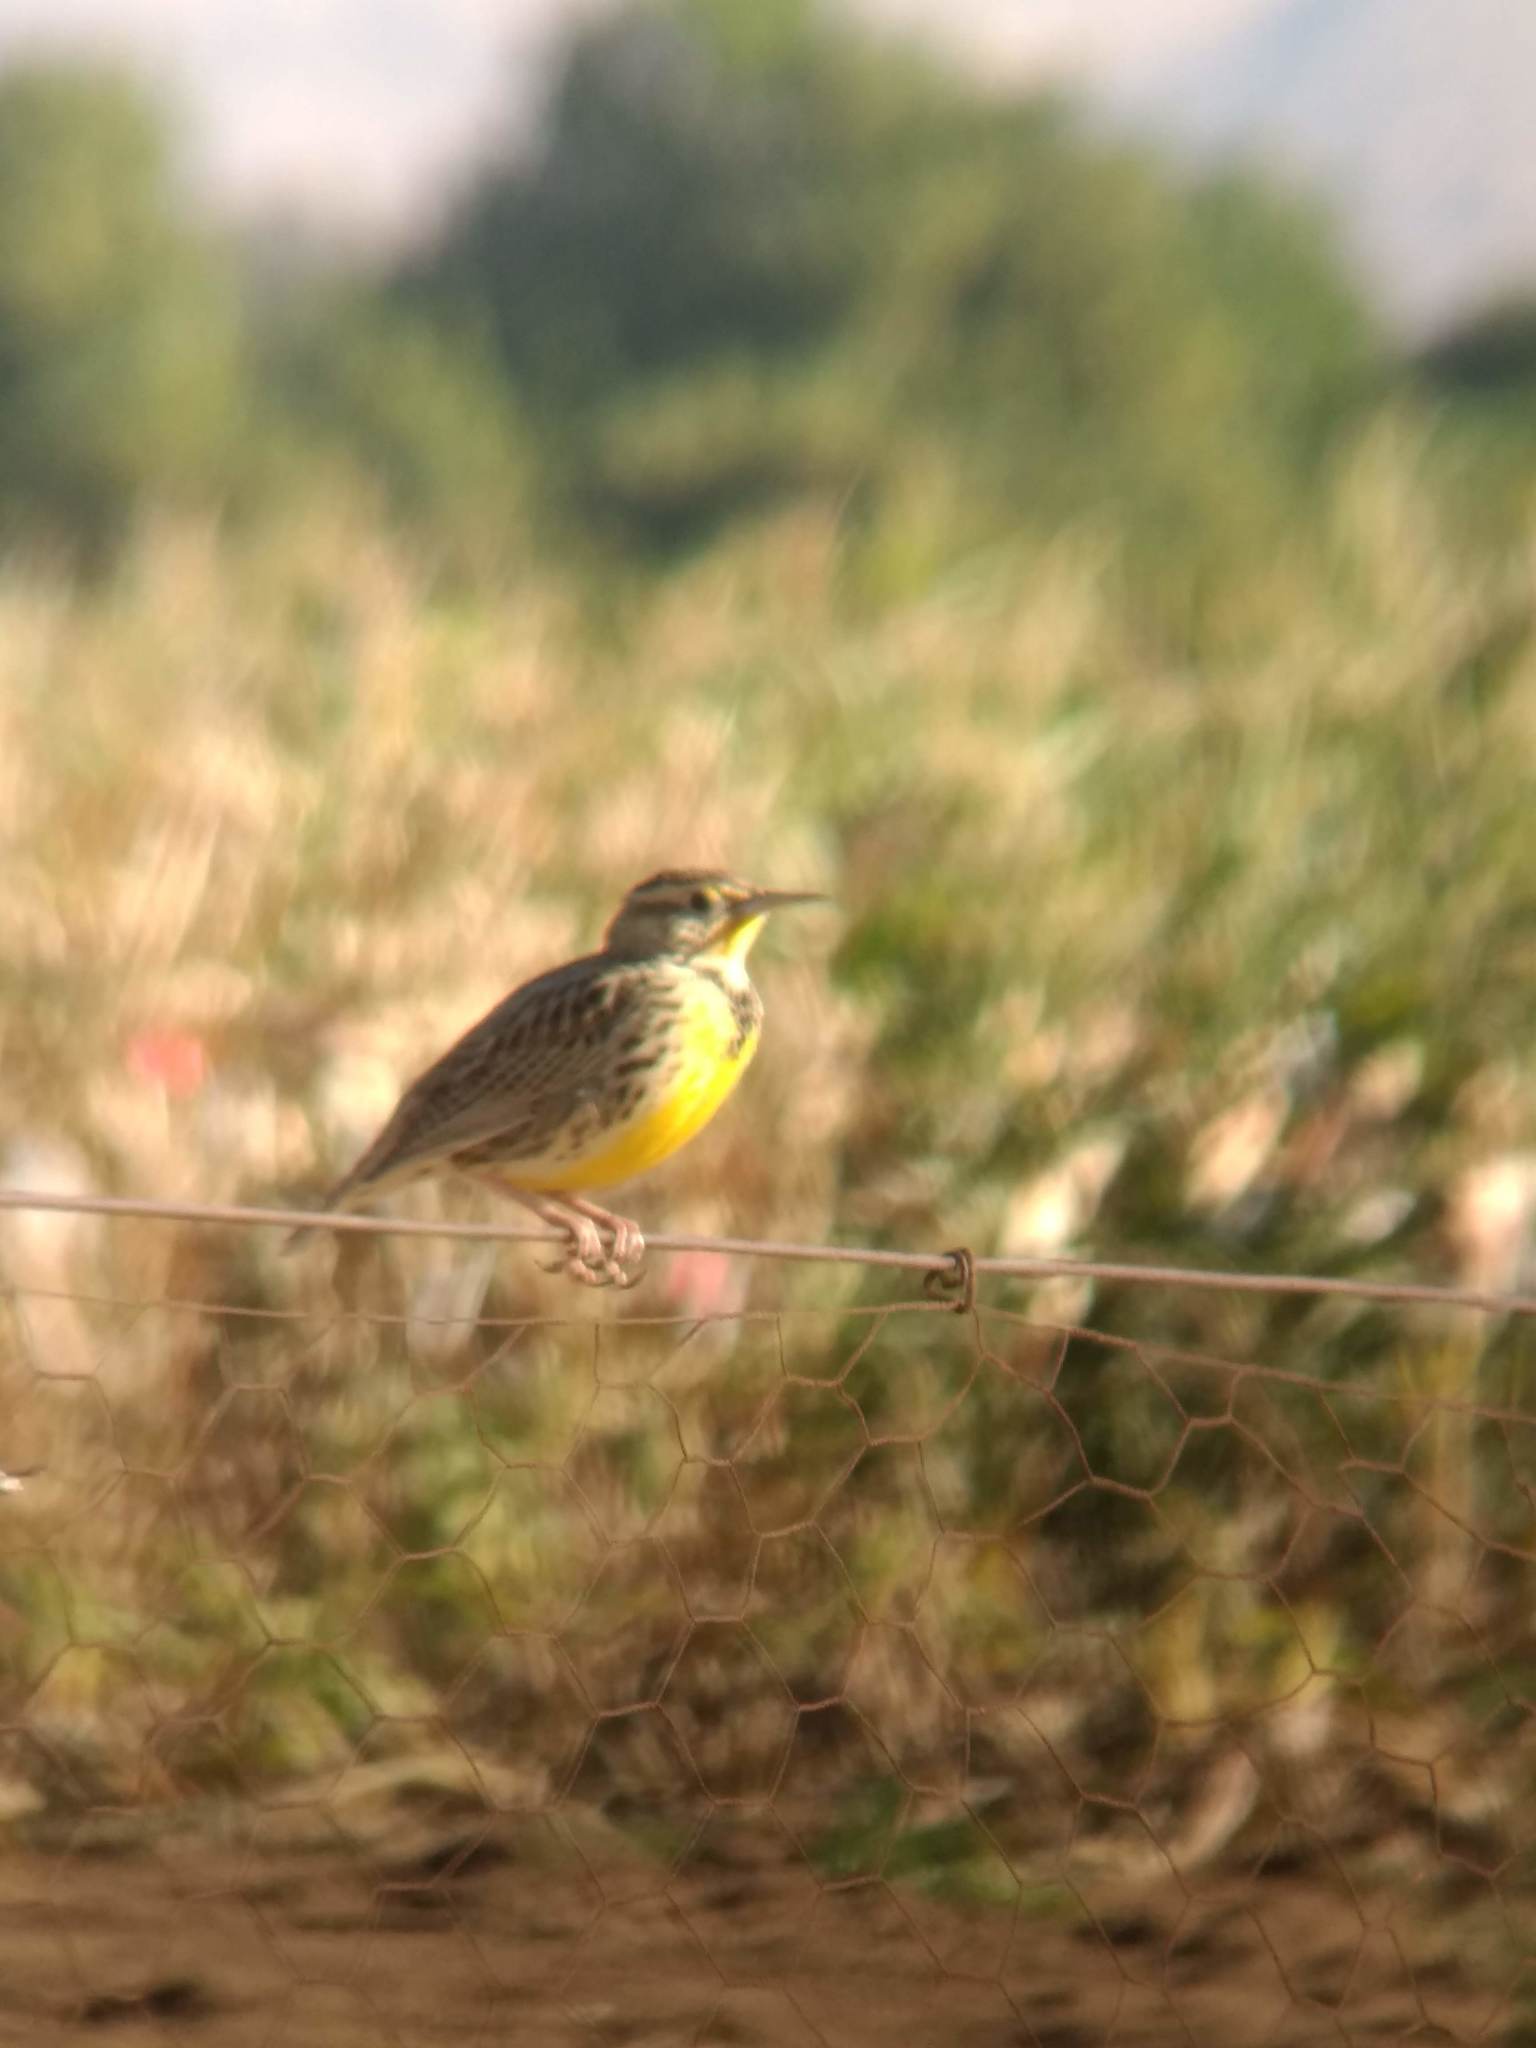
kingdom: Animalia
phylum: Chordata
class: Aves
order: Passeriformes
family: Icteridae
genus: Sturnella
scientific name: Sturnella neglecta
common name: Western meadowlark
